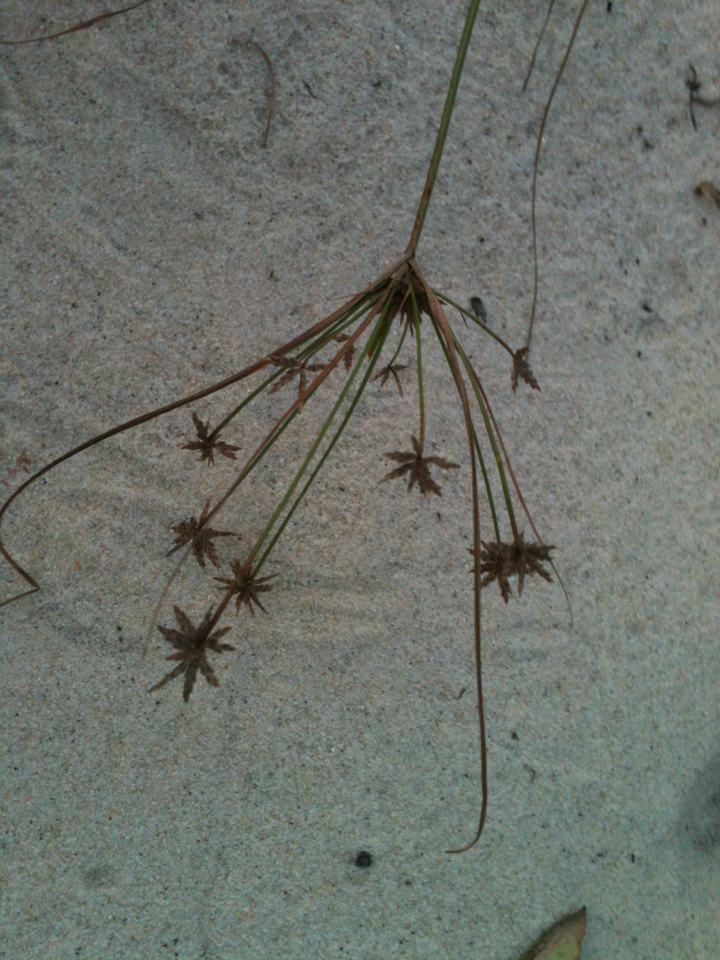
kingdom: Plantae
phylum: Tracheophyta
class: Liliopsida
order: Poales
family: Cyperaceae
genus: Cyperus
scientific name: Cyperus grayi
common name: Gray's flat sedge
